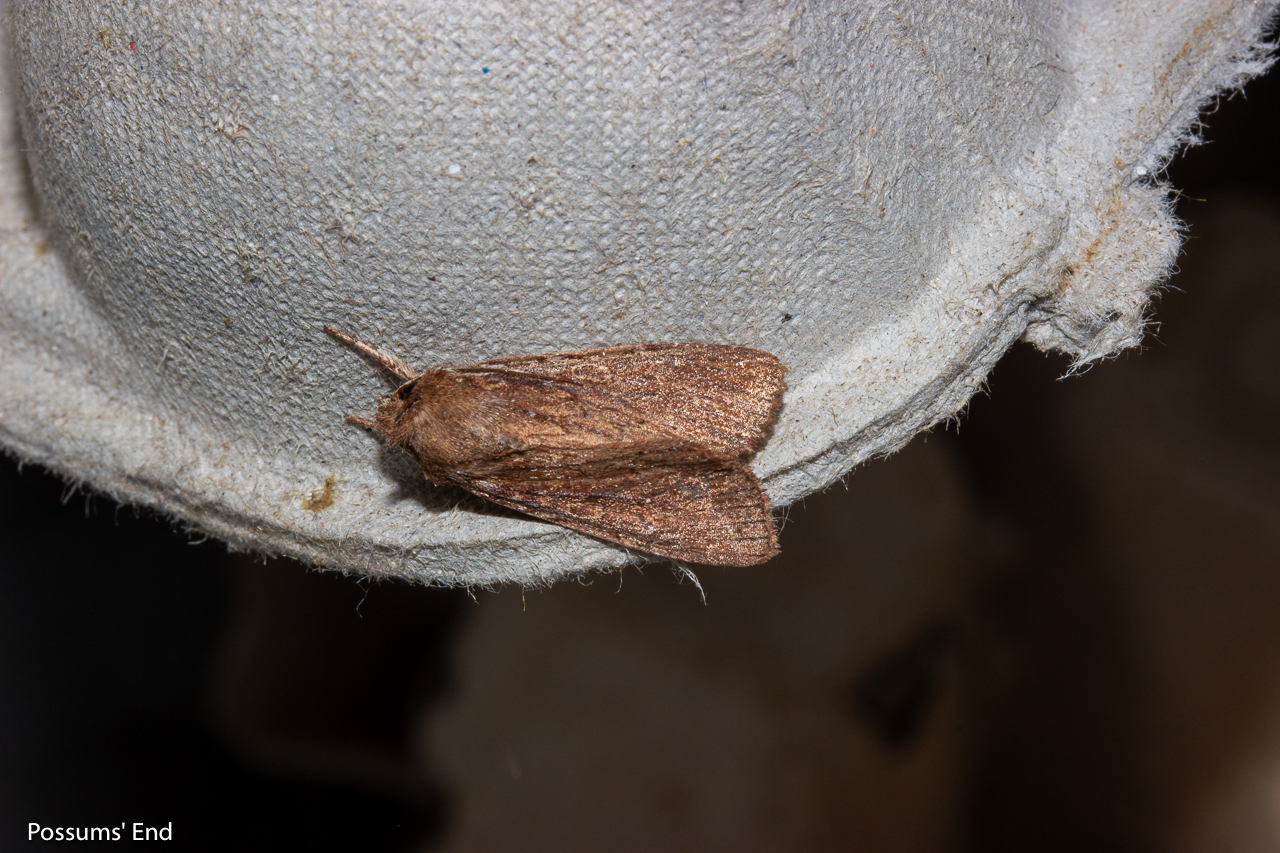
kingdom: Animalia
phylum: Arthropoda
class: Insecta
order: Lepidoptera
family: Noctuidae
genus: Ichneutica
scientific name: Ichneutica
